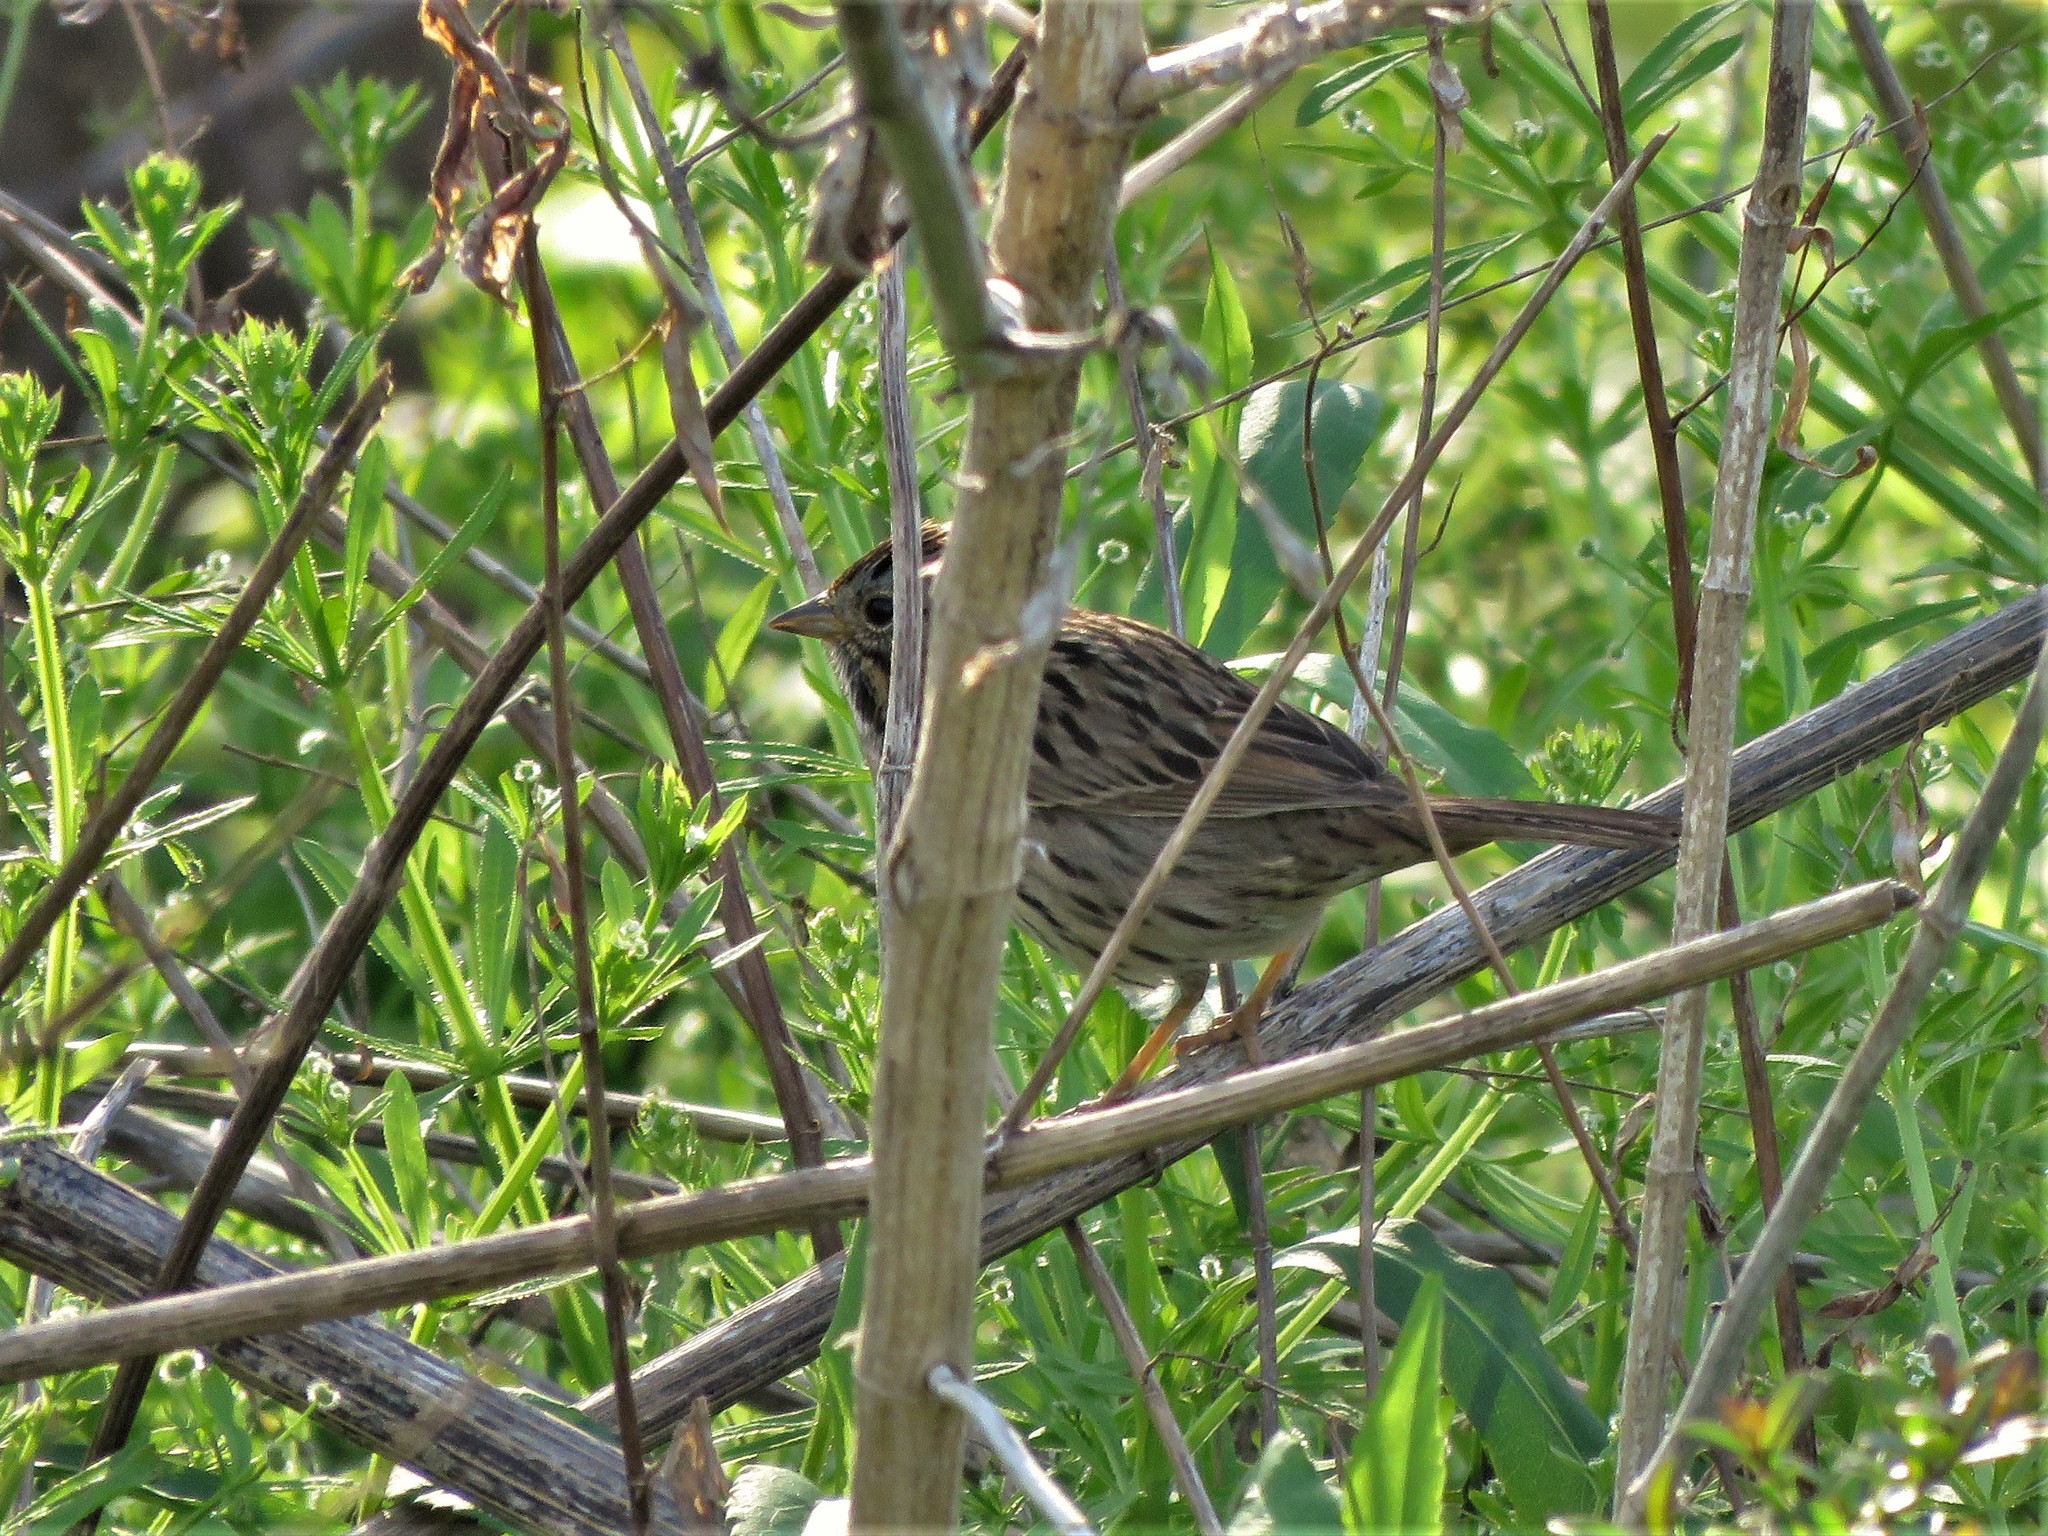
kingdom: Animalia
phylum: Chordata
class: Aves
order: Passeriformes
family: Passerellidae
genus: Melospiza
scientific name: Melospiza lincolnii
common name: Lincoln's sparrow
